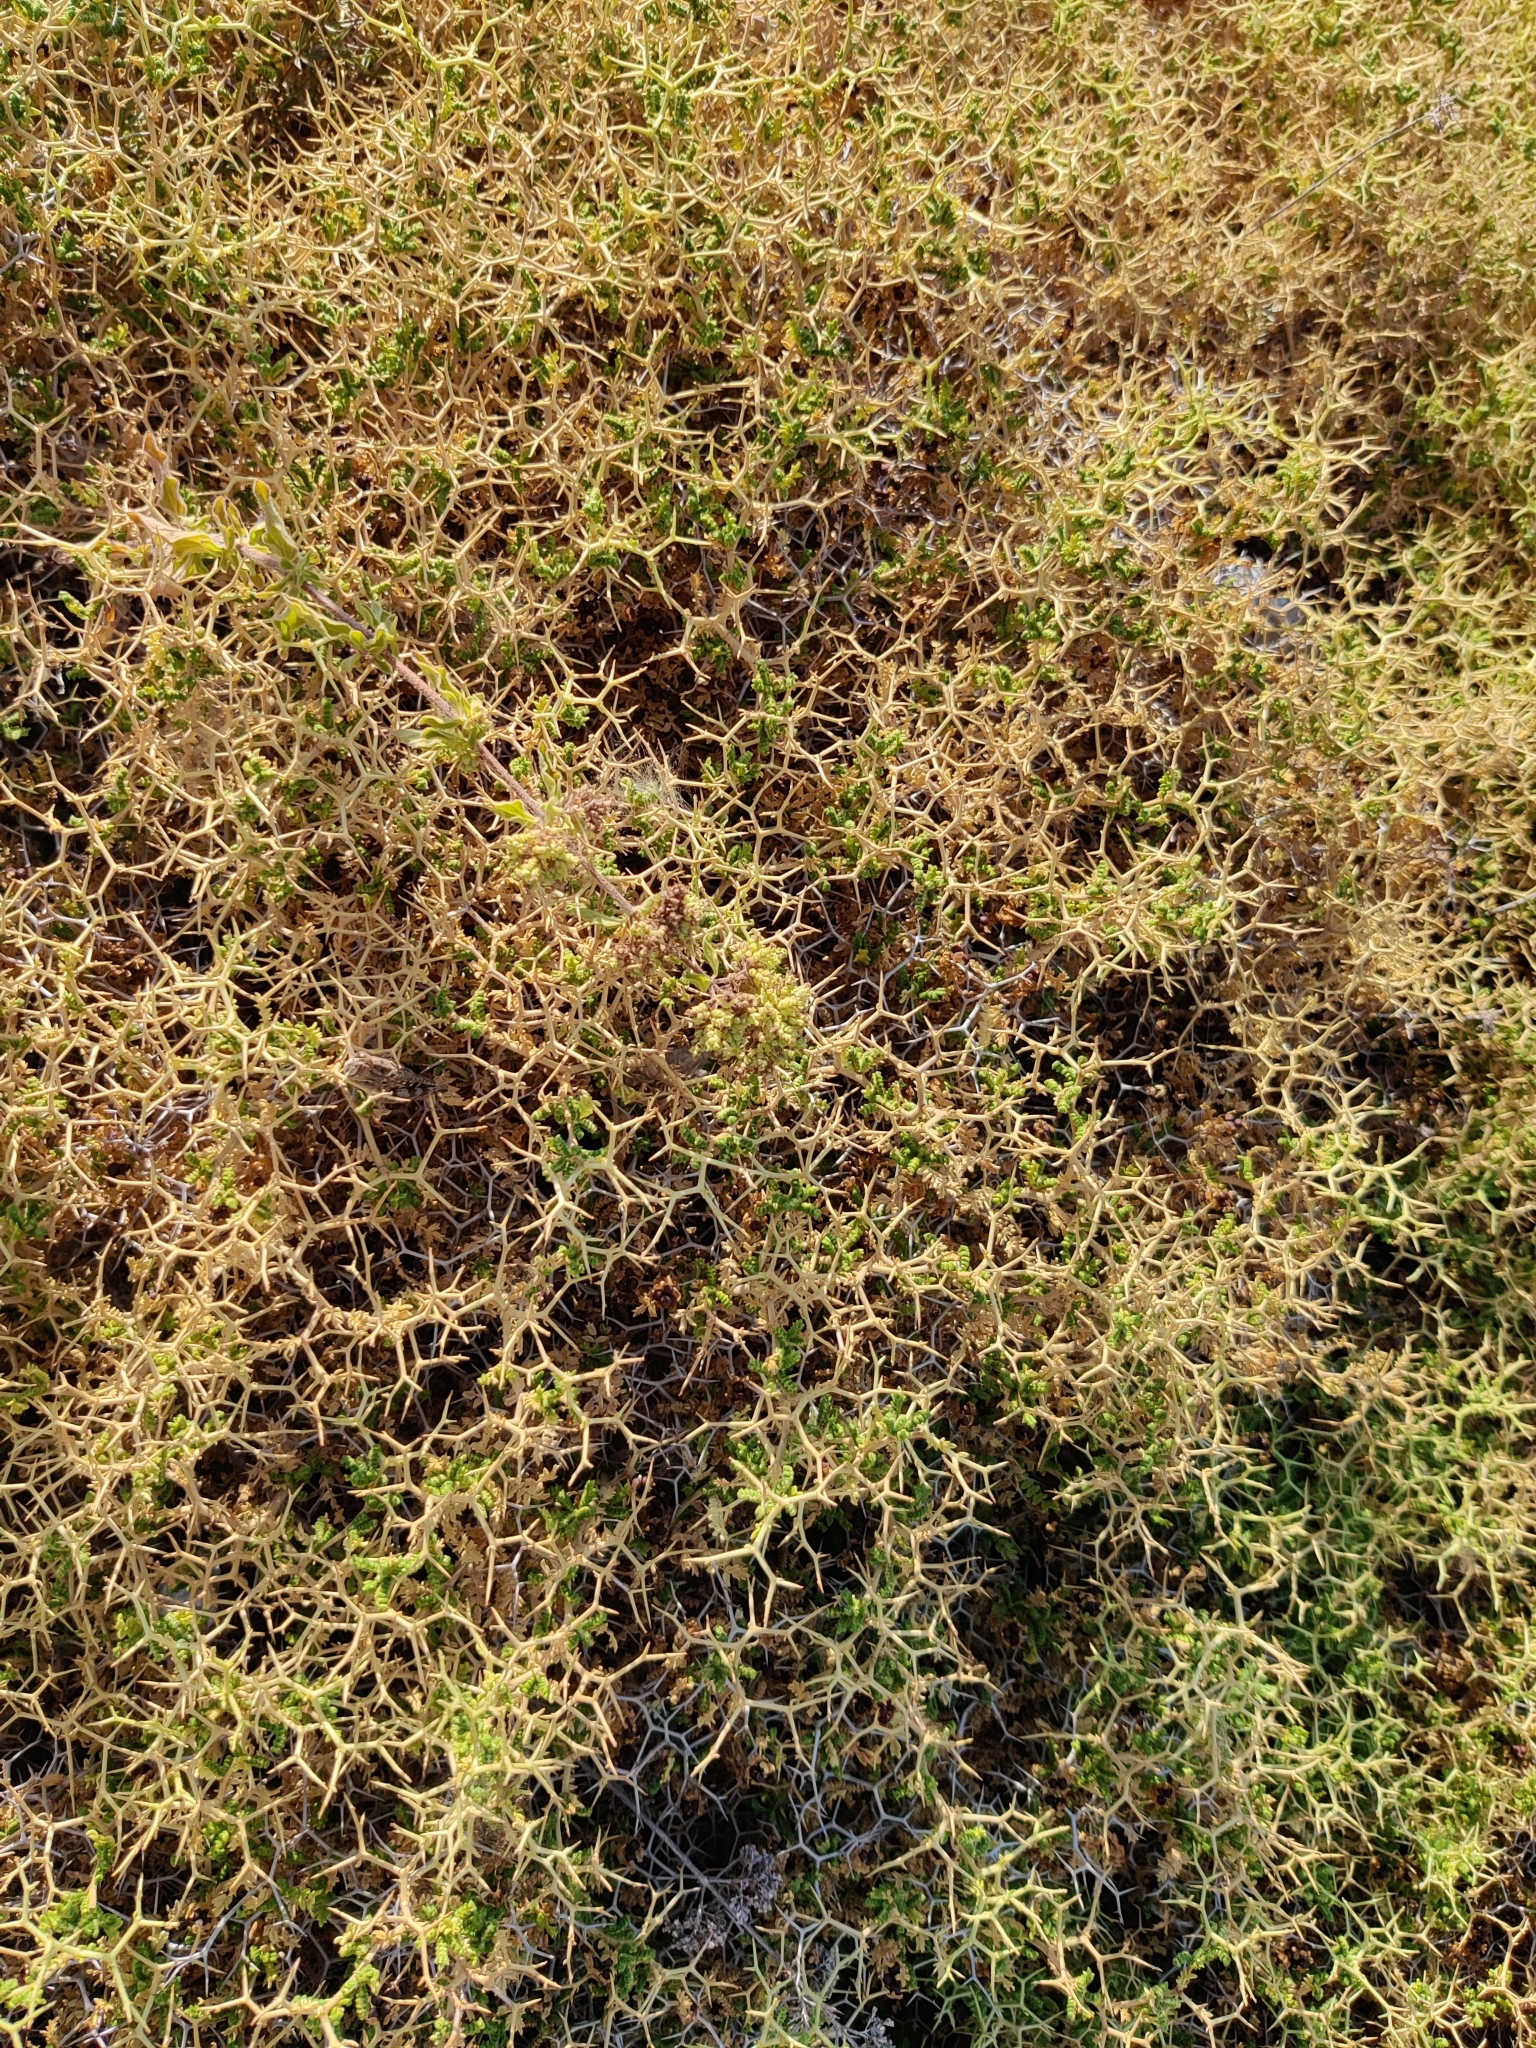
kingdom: Plantae
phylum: Tracheophyta
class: Magnoliopsida
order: Rosales
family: Rosaceae
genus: Sarcopoterium
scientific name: Sarcopoterium spinosum
